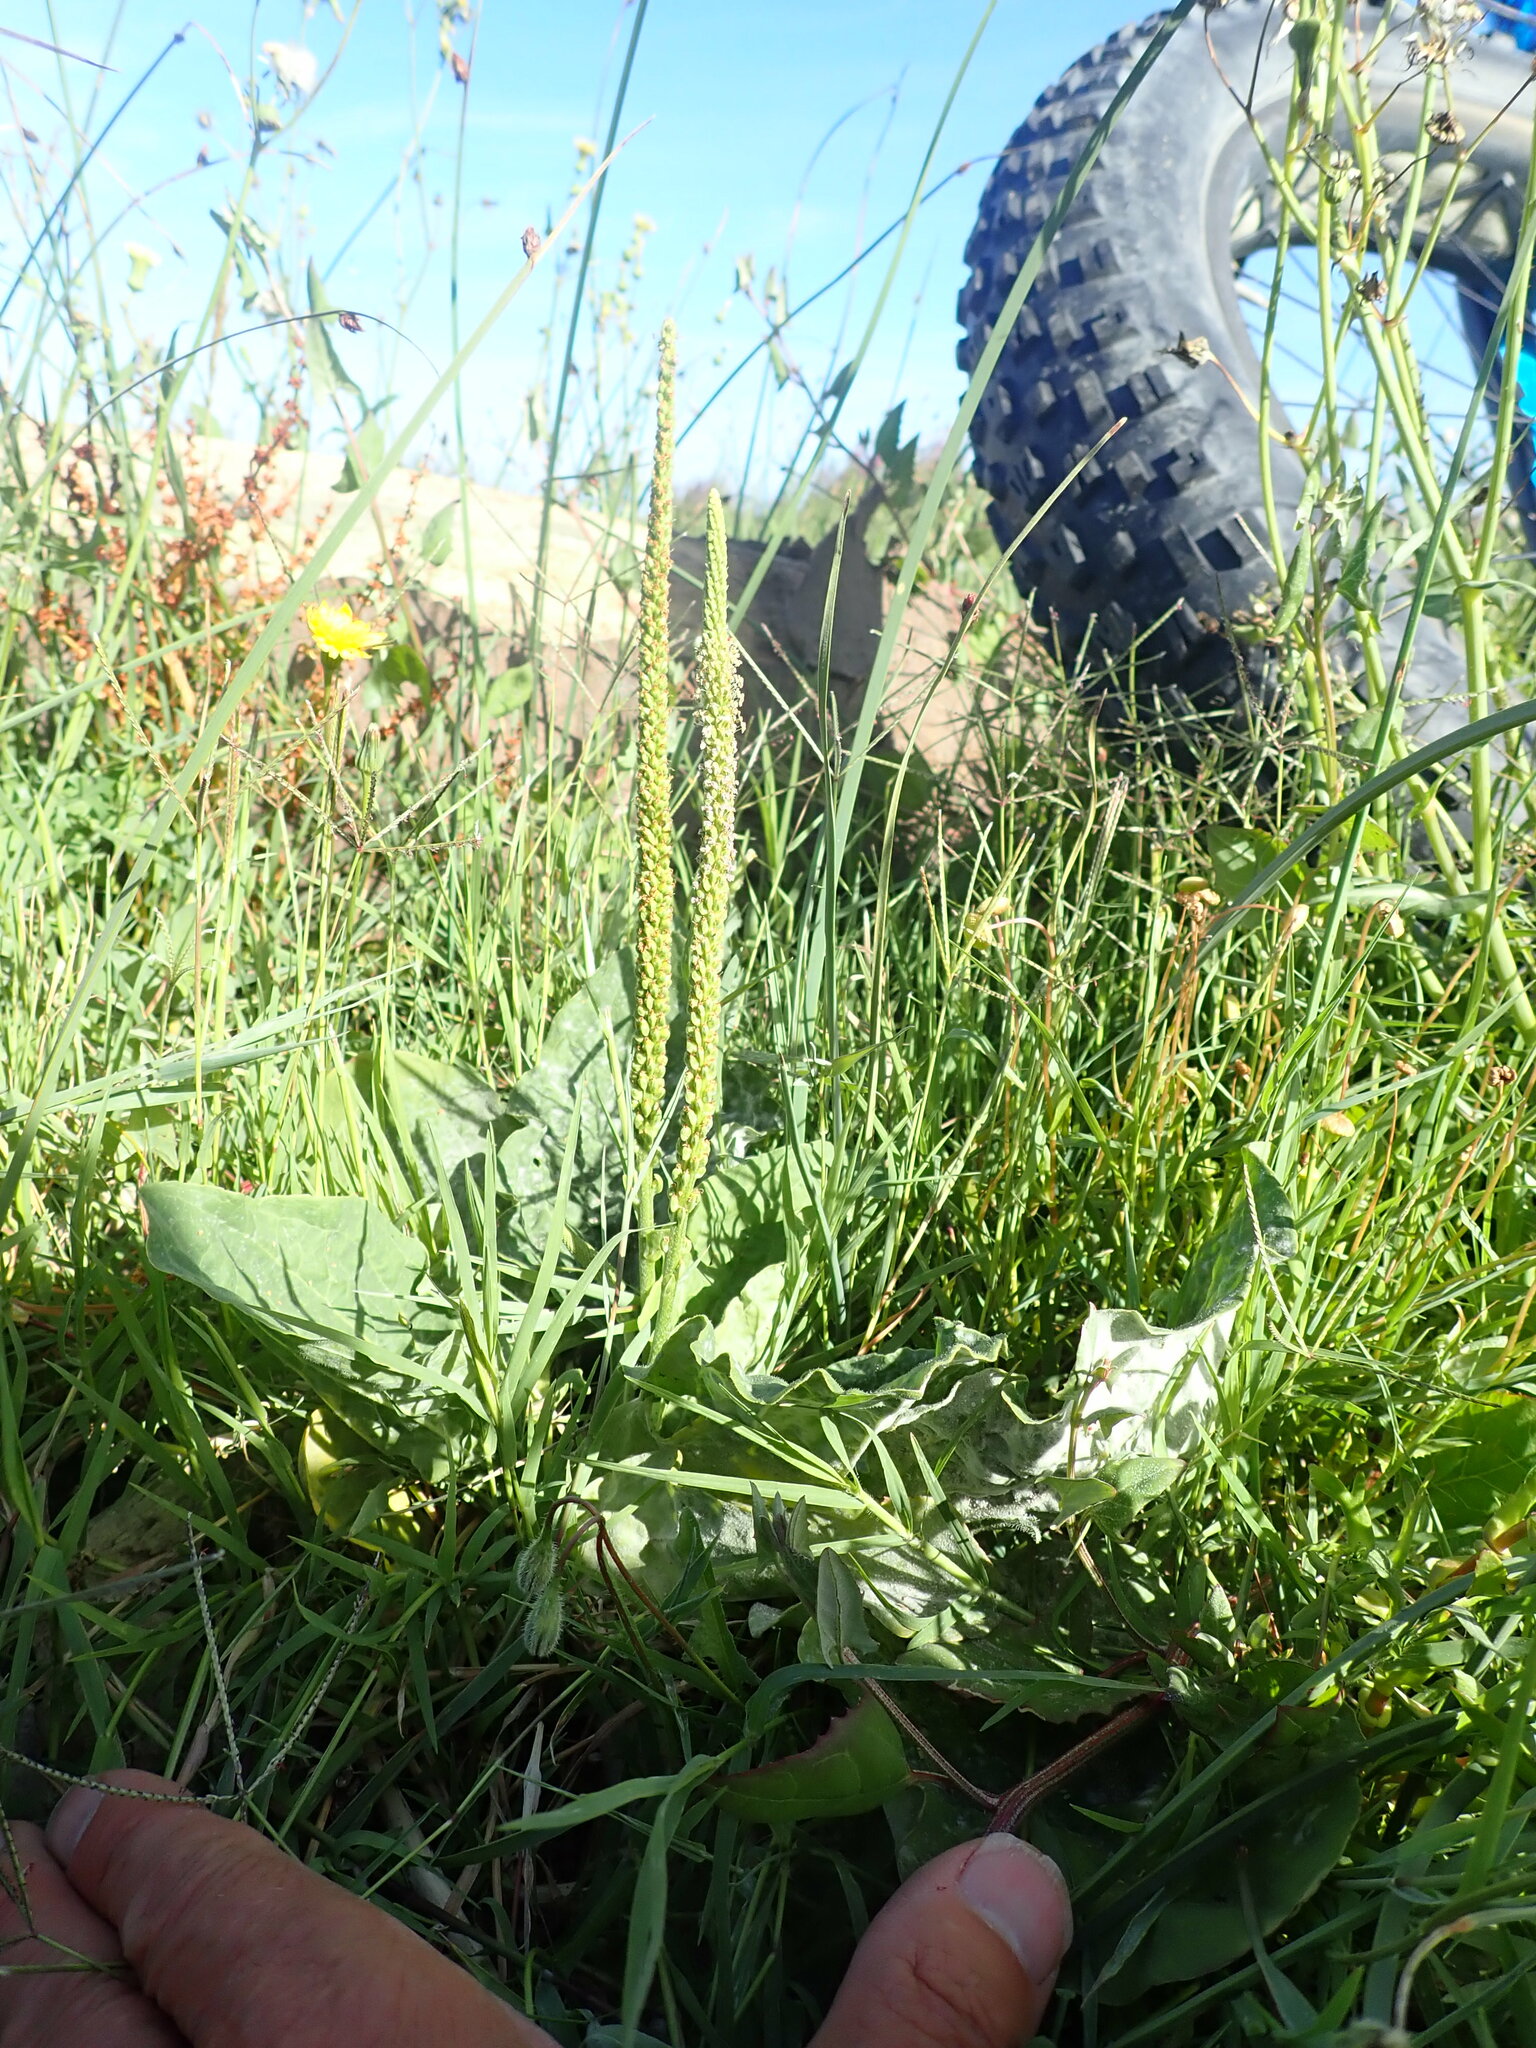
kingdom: Plantae
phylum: Tracheophyta
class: Magnoliopsida
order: Lamiales
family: Plantaginaceae
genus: Plantago
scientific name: Plantago major
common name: Common plantain
